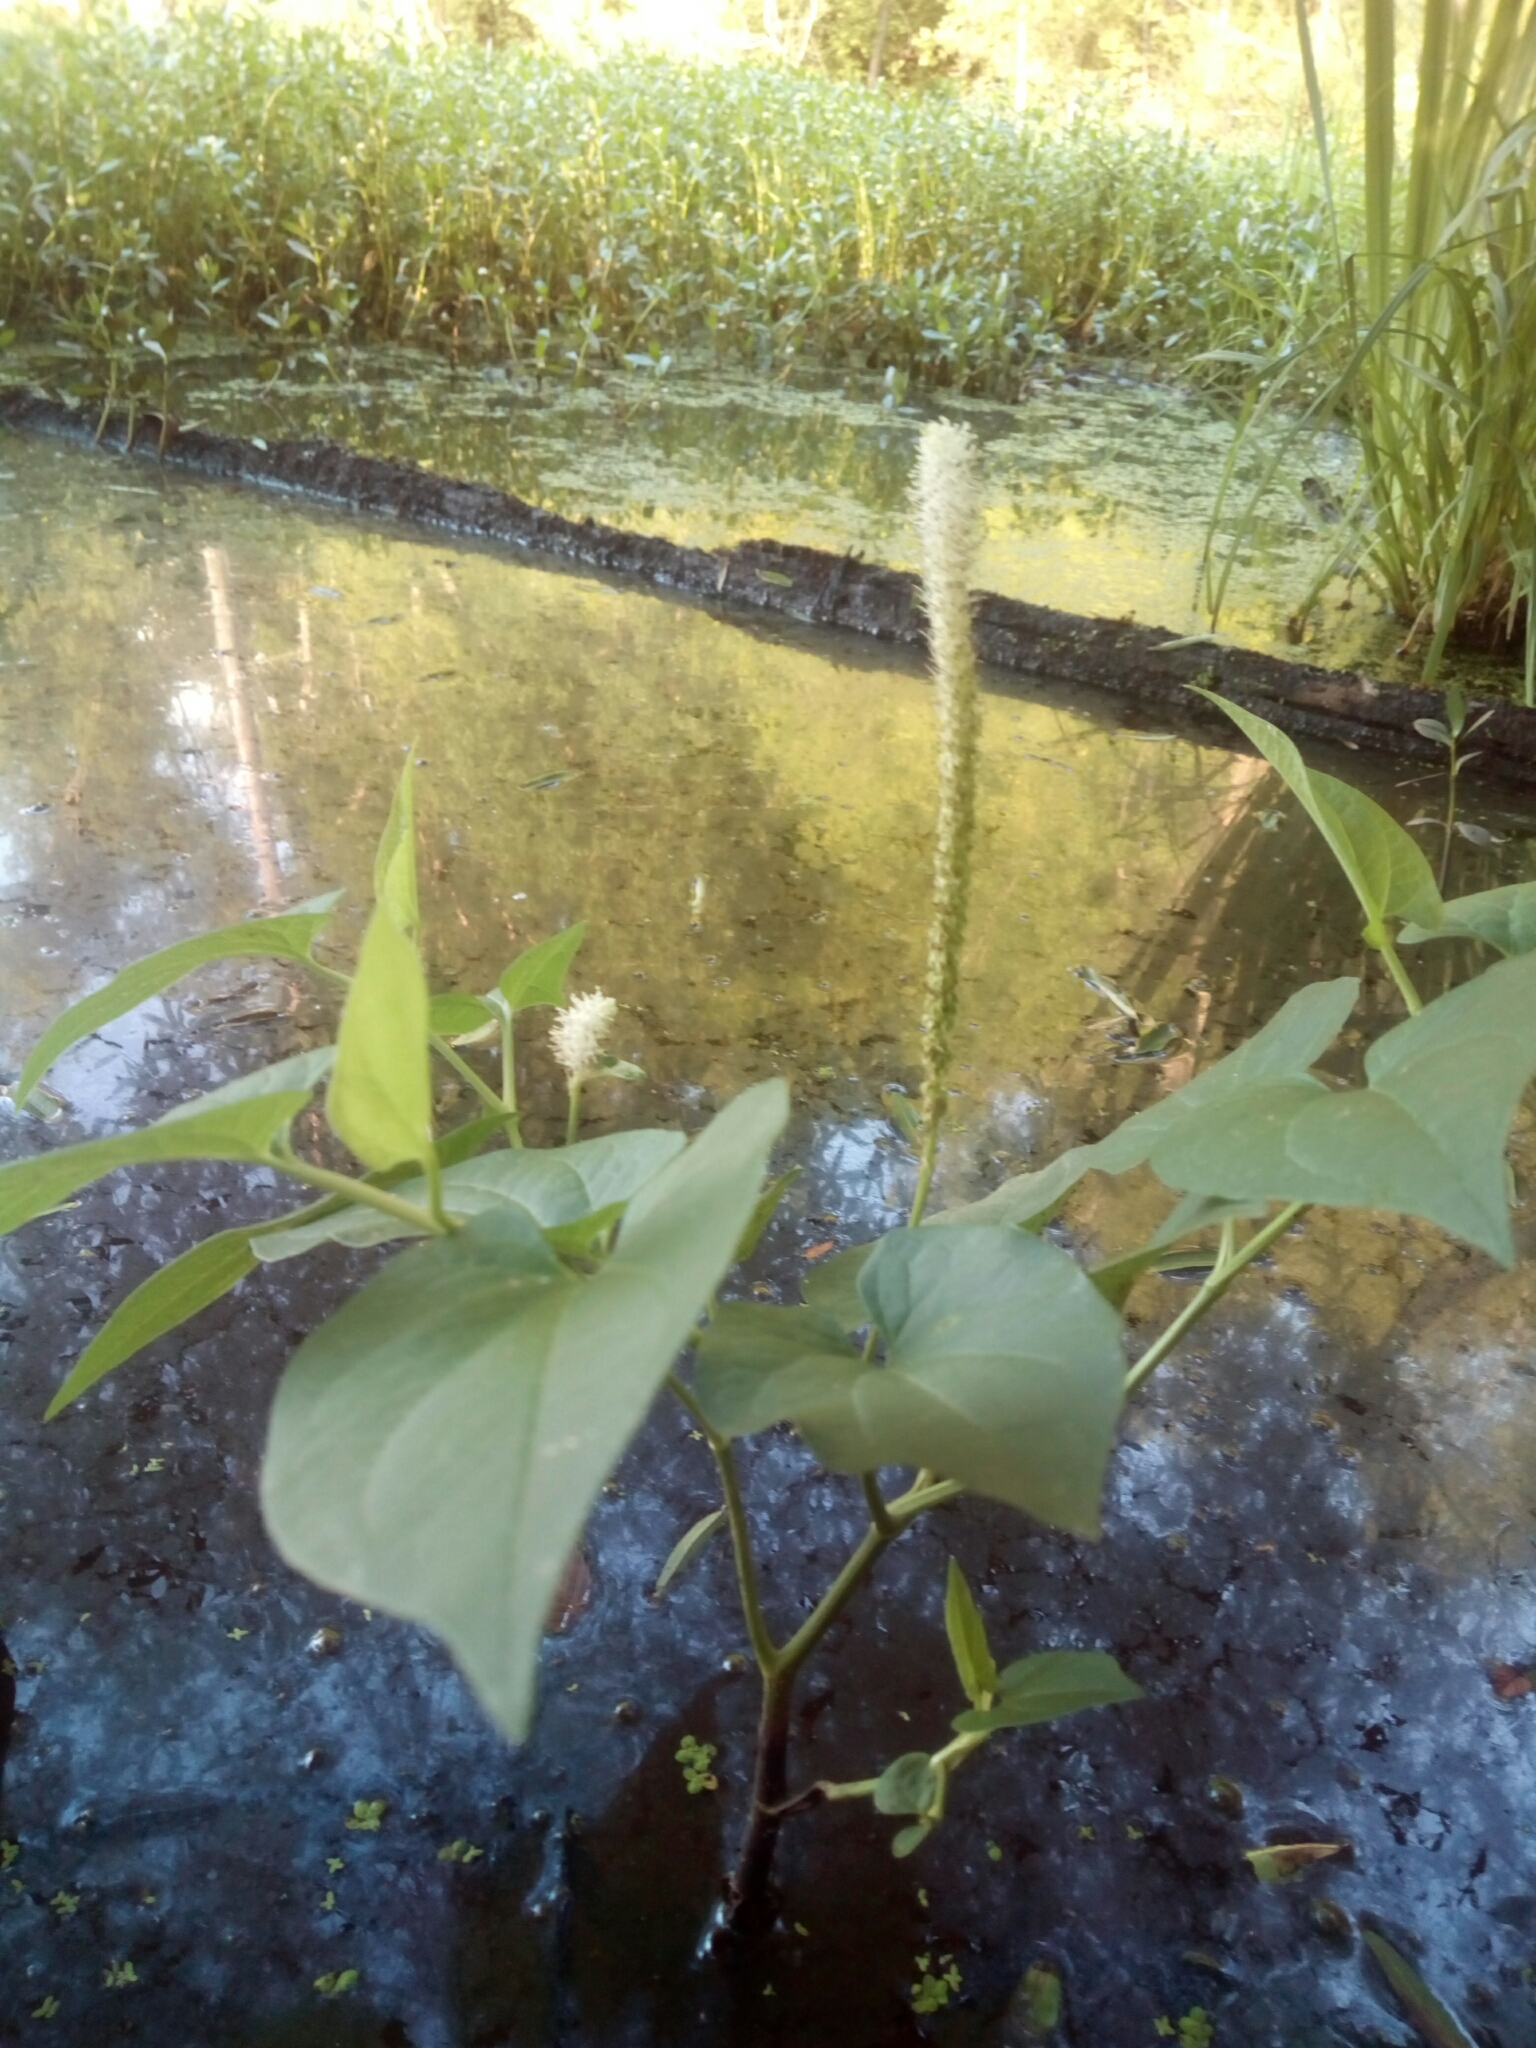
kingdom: Plantae
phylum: Tracheophyta
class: Magnoliopsida
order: Piperales
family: Saururaceae
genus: Saururus
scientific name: Saururus cernuus
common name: Lizard's-tail
